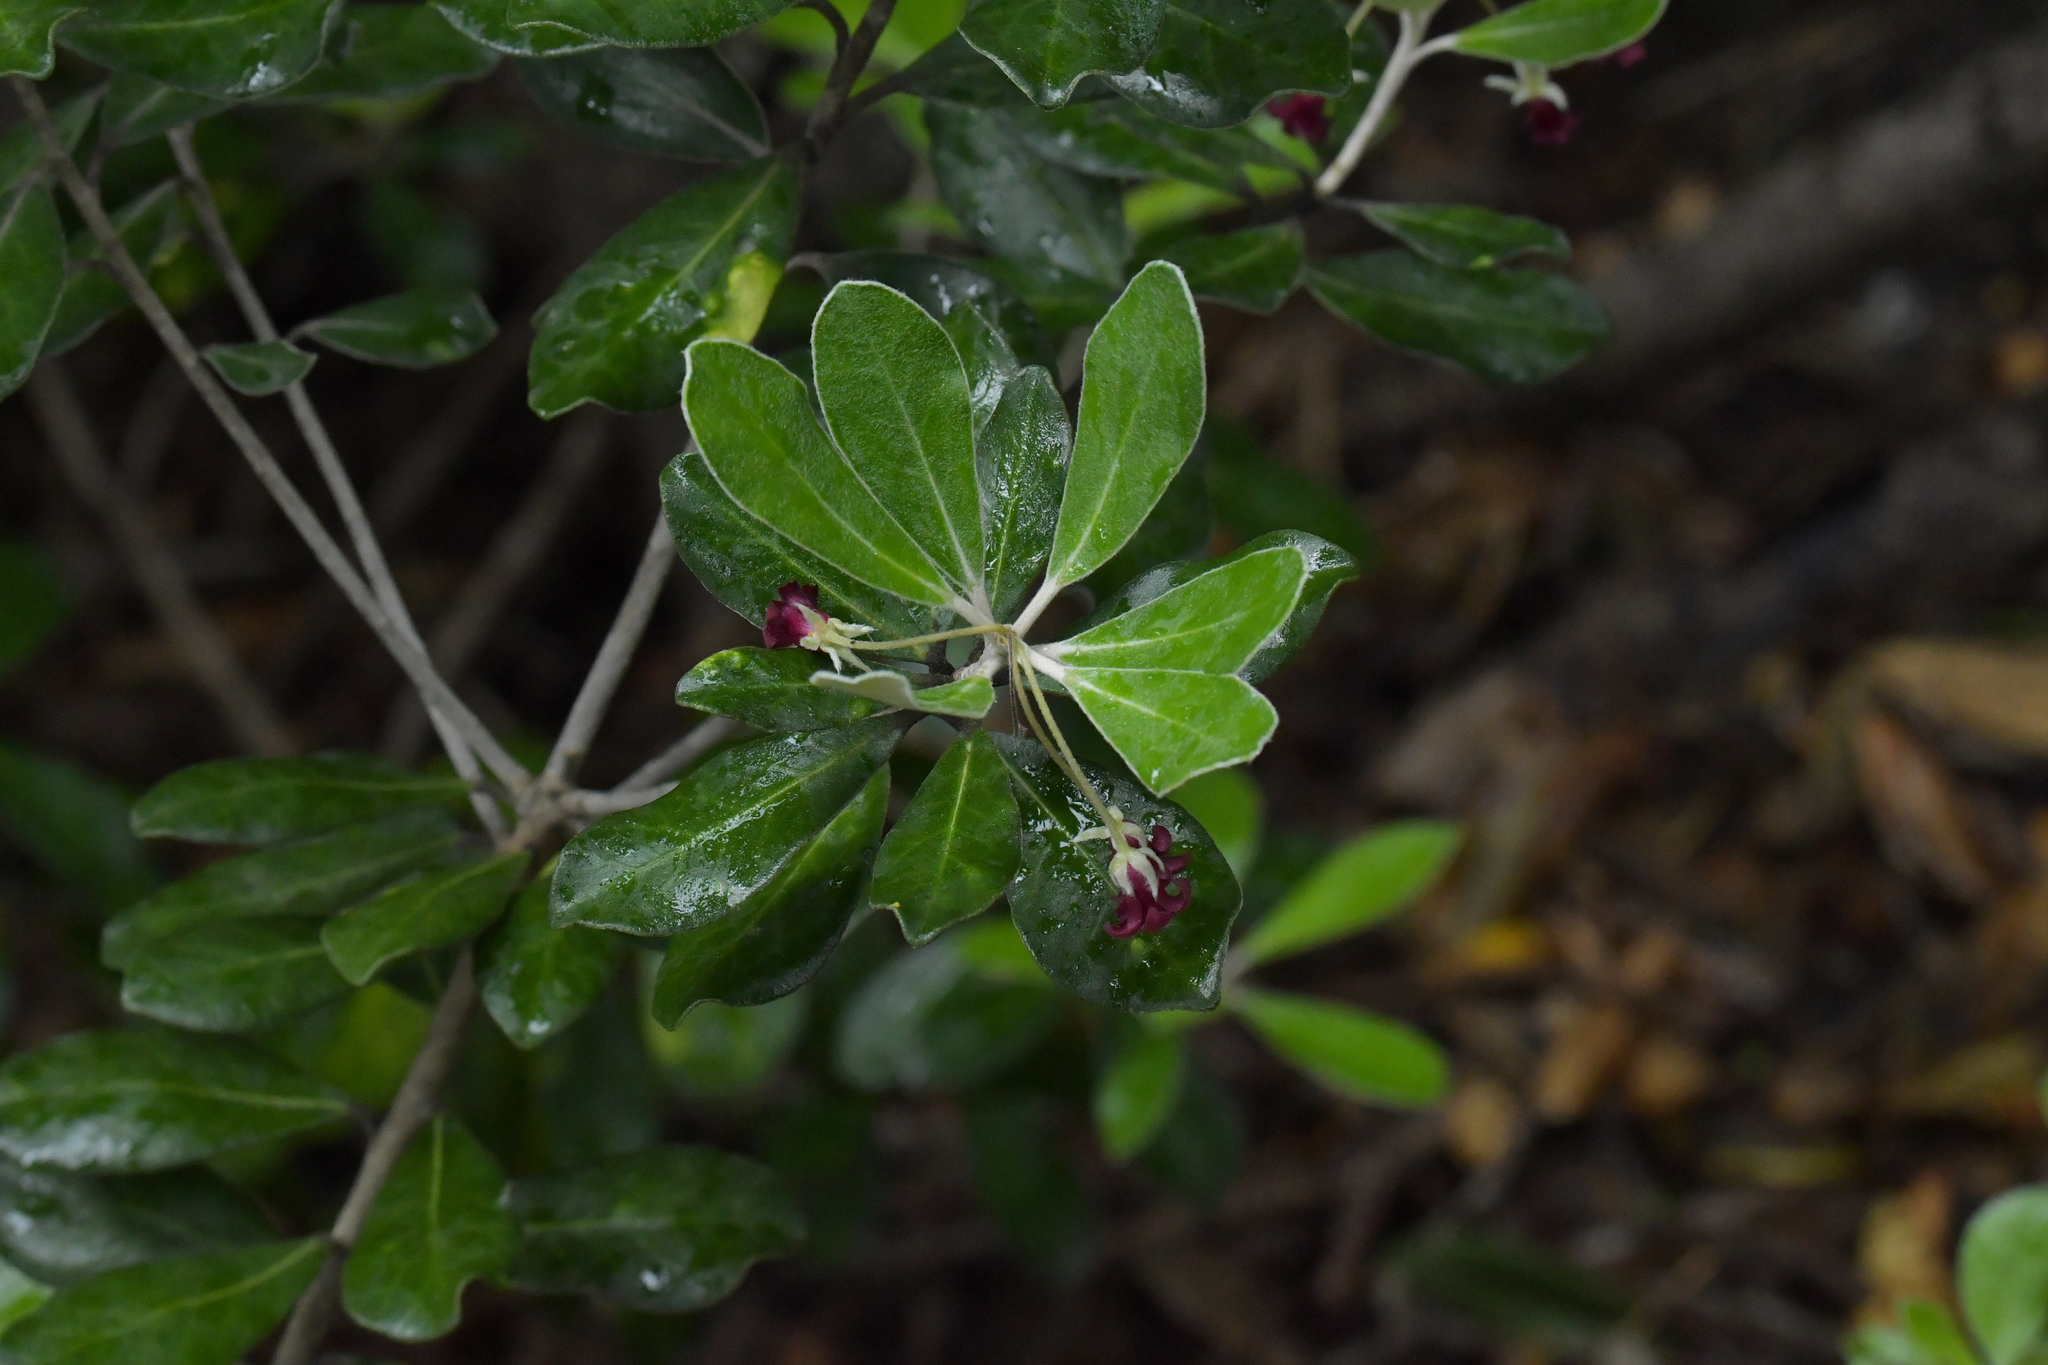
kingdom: Plantae
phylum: Tracheophyta
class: Magnoliopsida
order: Apiales
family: Pittosporaceae
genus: Pittosporum
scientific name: Pittosporum crassifolium
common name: Karo
